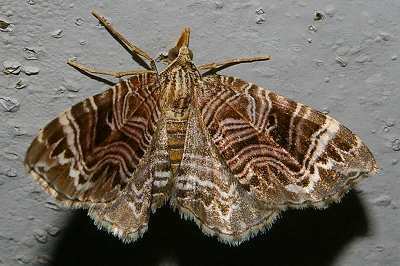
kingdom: Animalia
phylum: Arthropoda
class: Insecta
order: Lepidoptera
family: Geometridae
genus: Microlygris
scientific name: Microlygris multistriata
